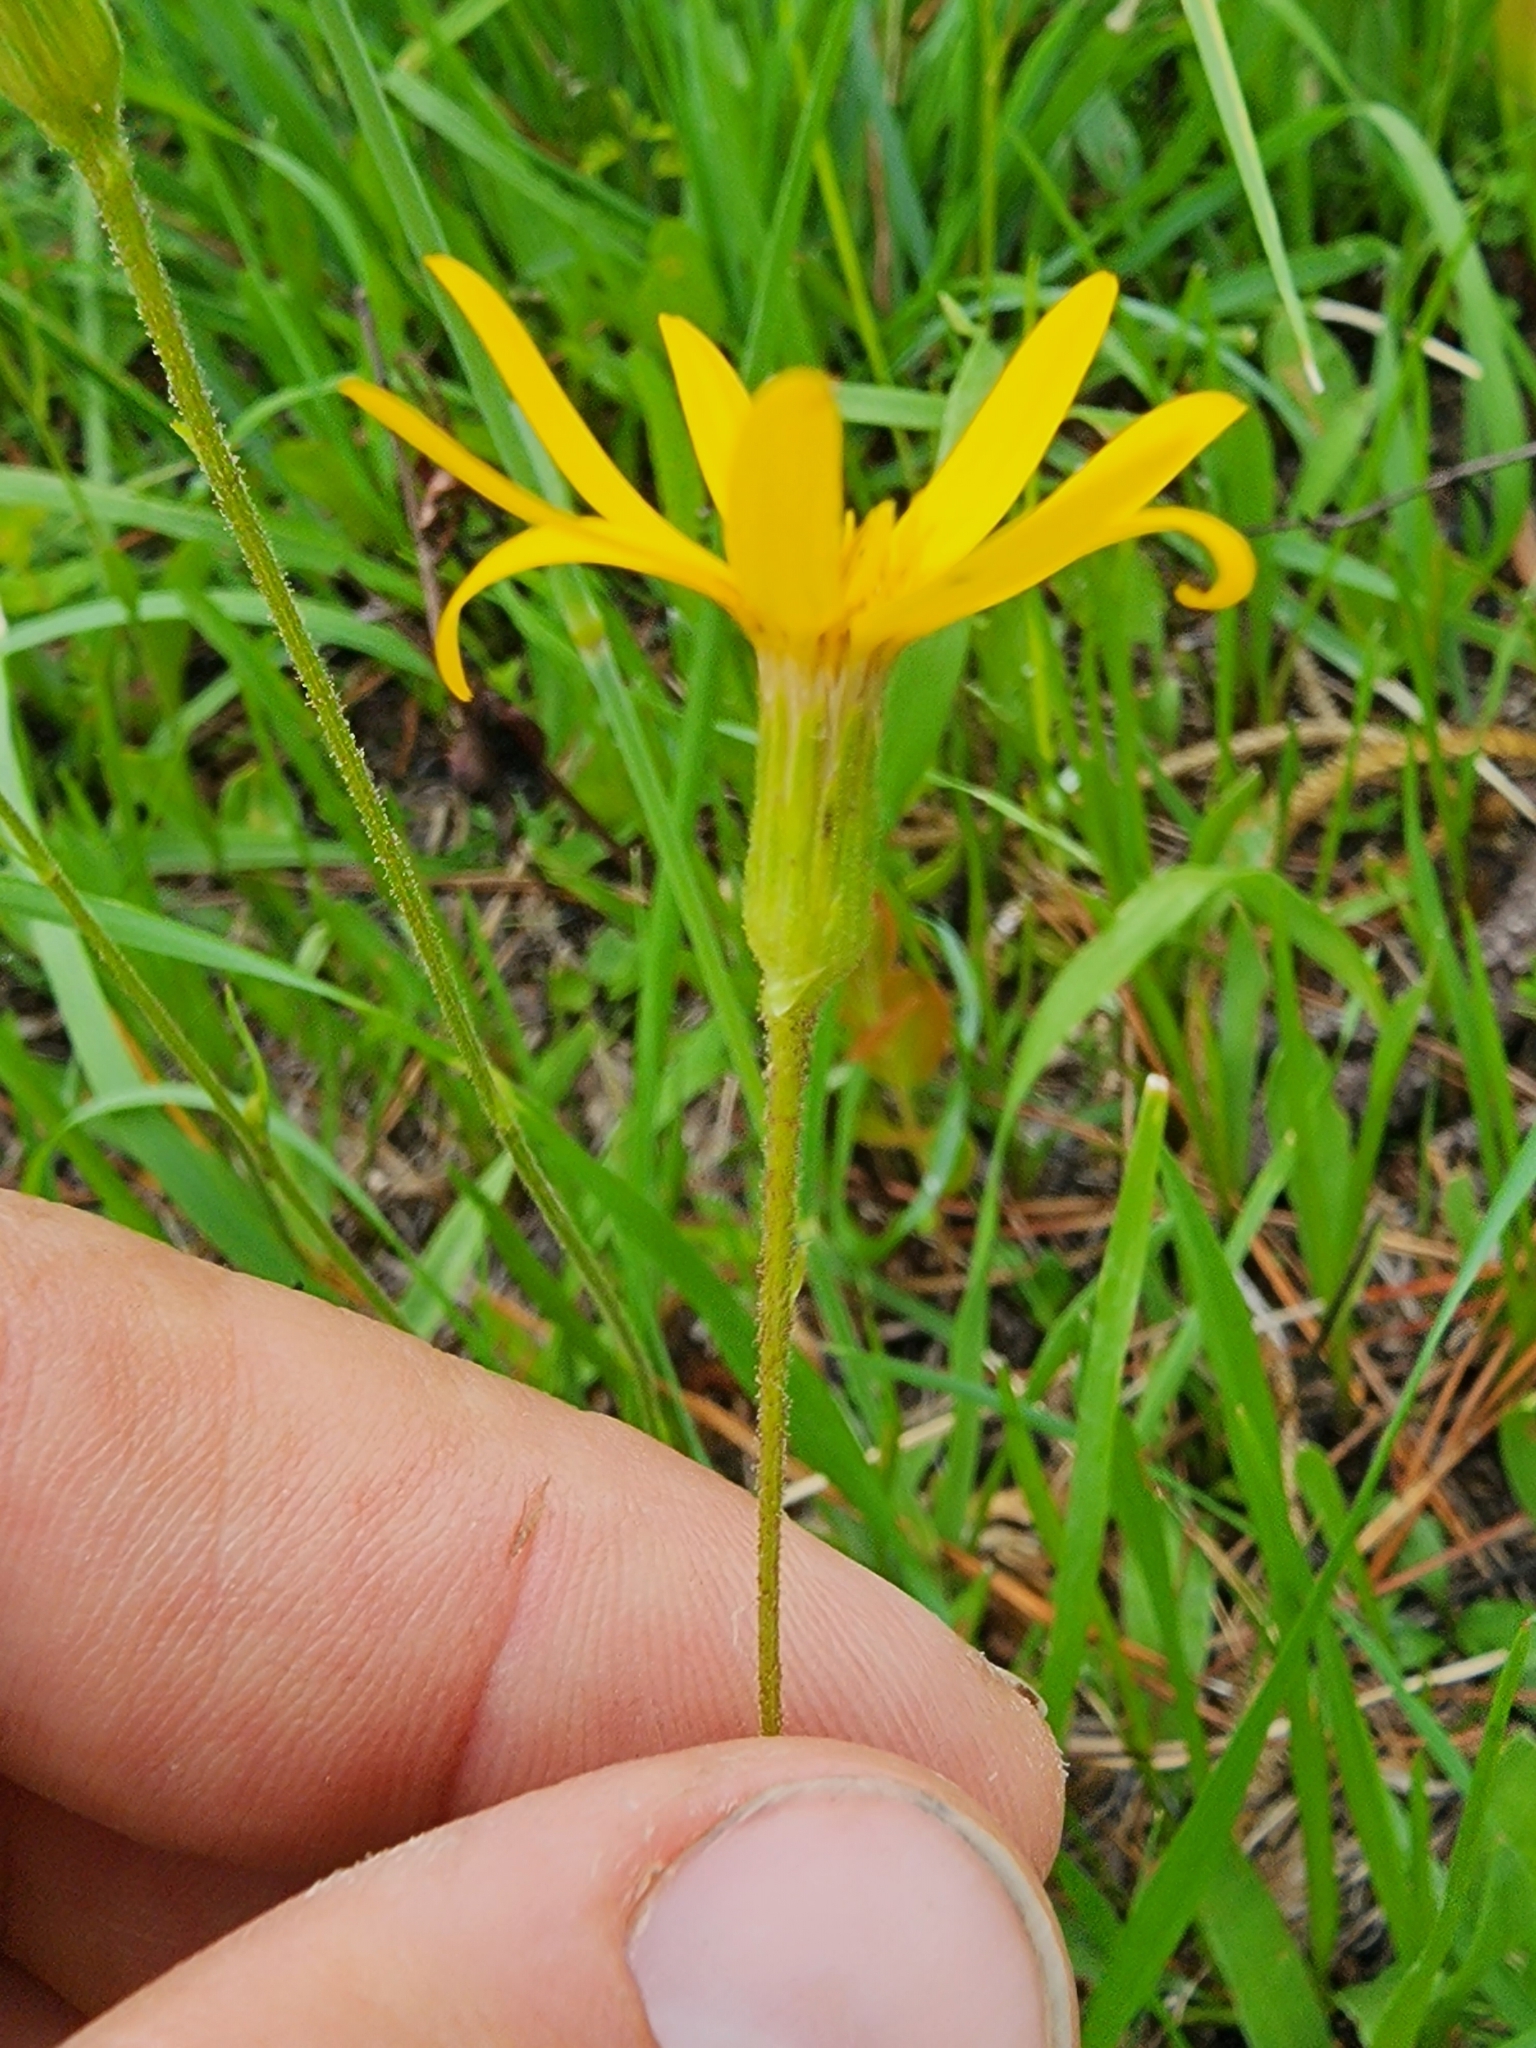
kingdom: Plantae
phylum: Tracheophyta
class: Magnoliopsida
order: Asterales
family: Asteraceae
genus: Pityopsis
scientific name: Pityopsis oligantha
